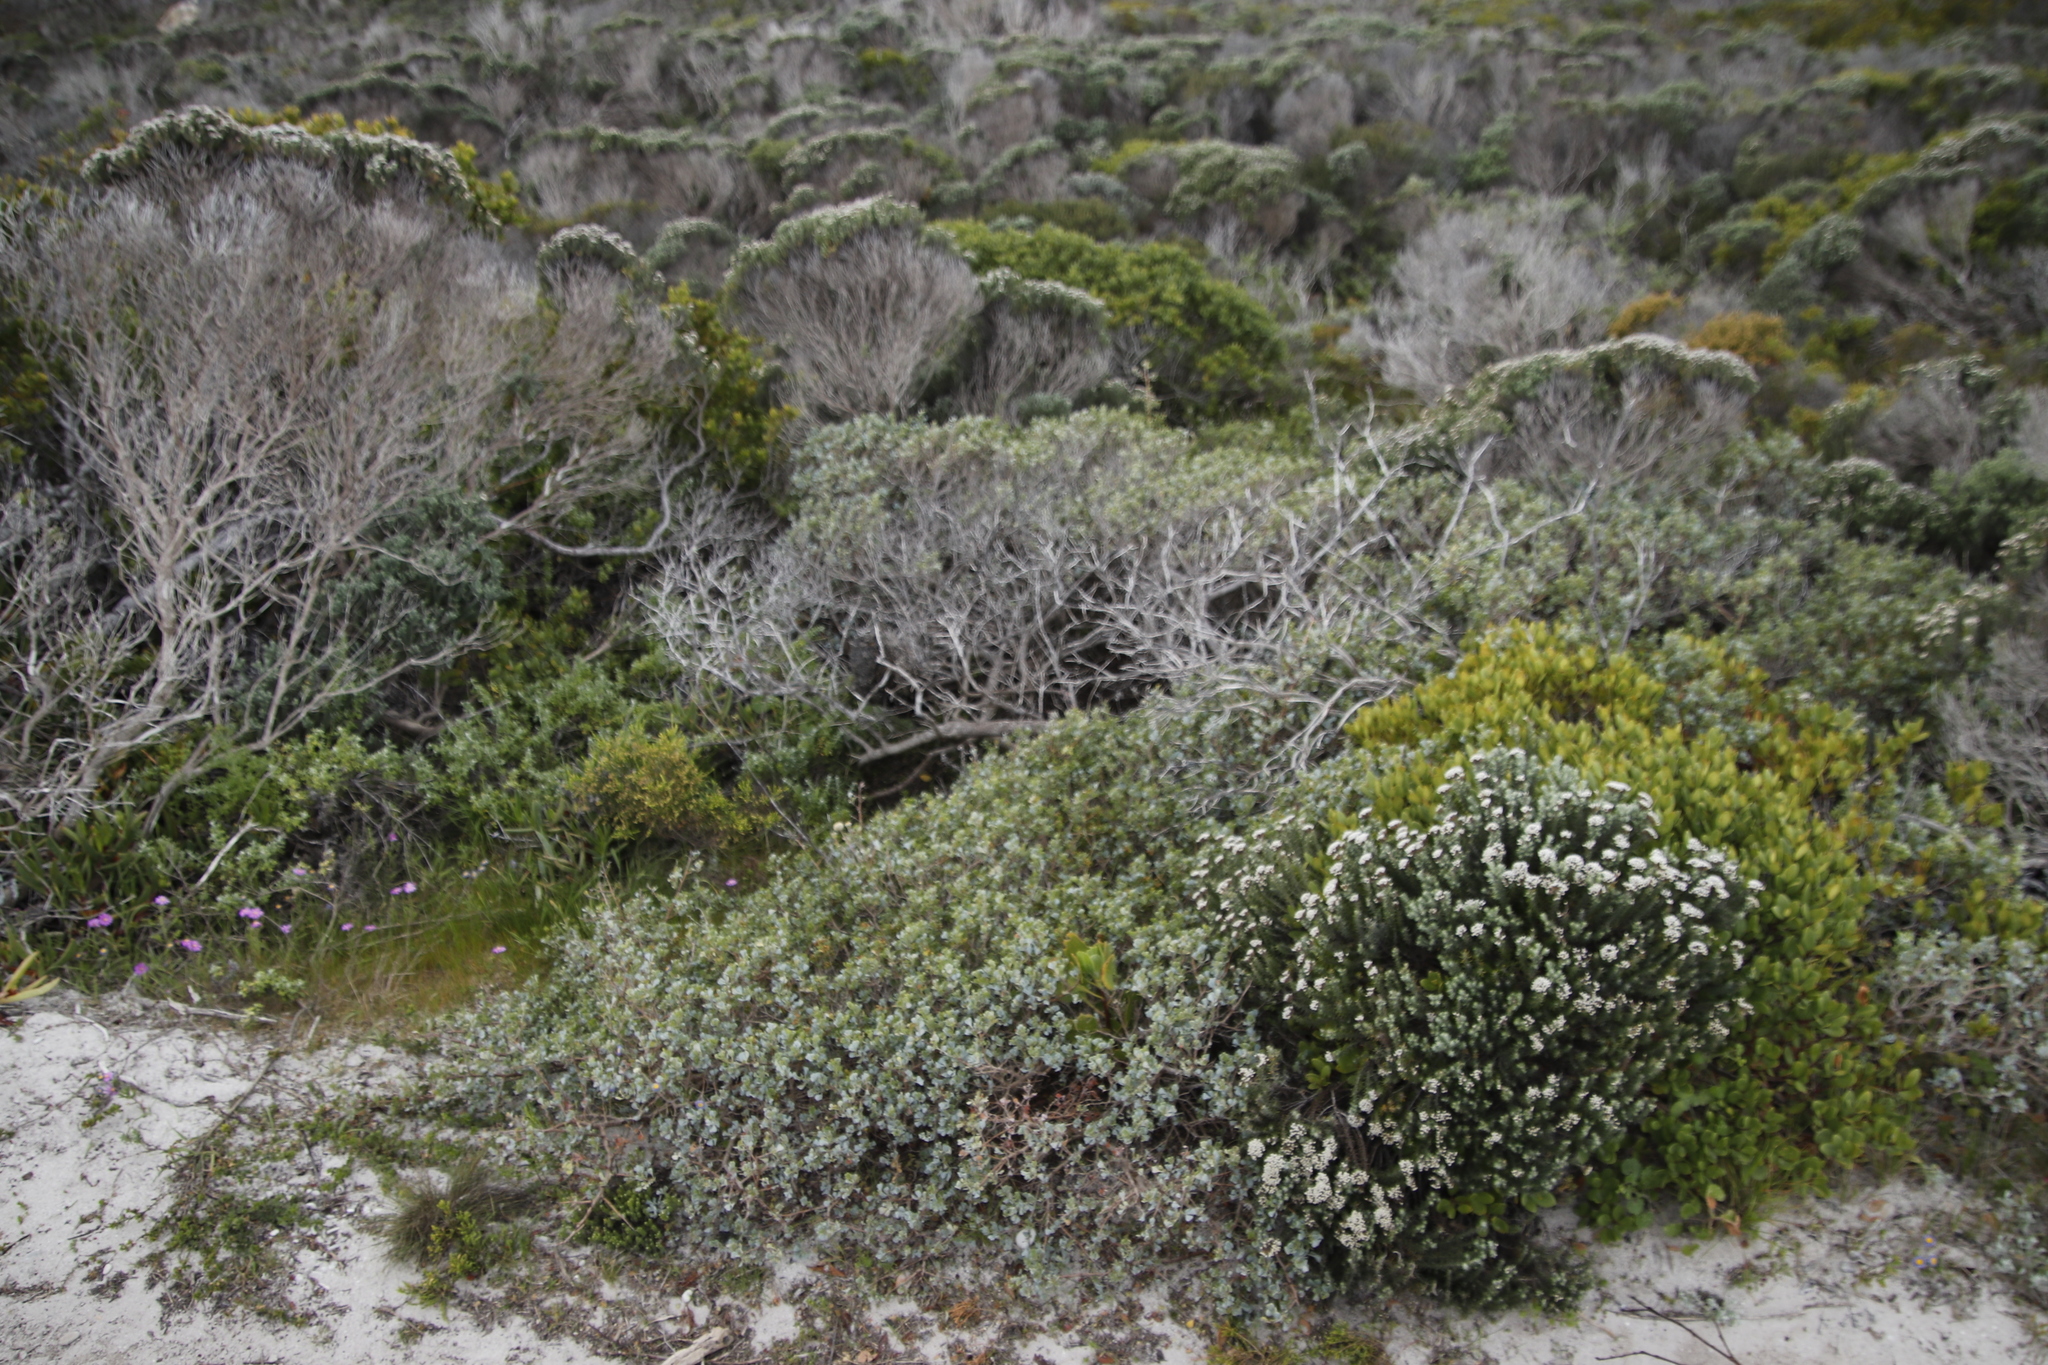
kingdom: Plantae
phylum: Tracheophyta
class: Magnoliopsida
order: Sapindales
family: Anacardiaceae
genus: Searsia
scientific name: Searsia glauca
